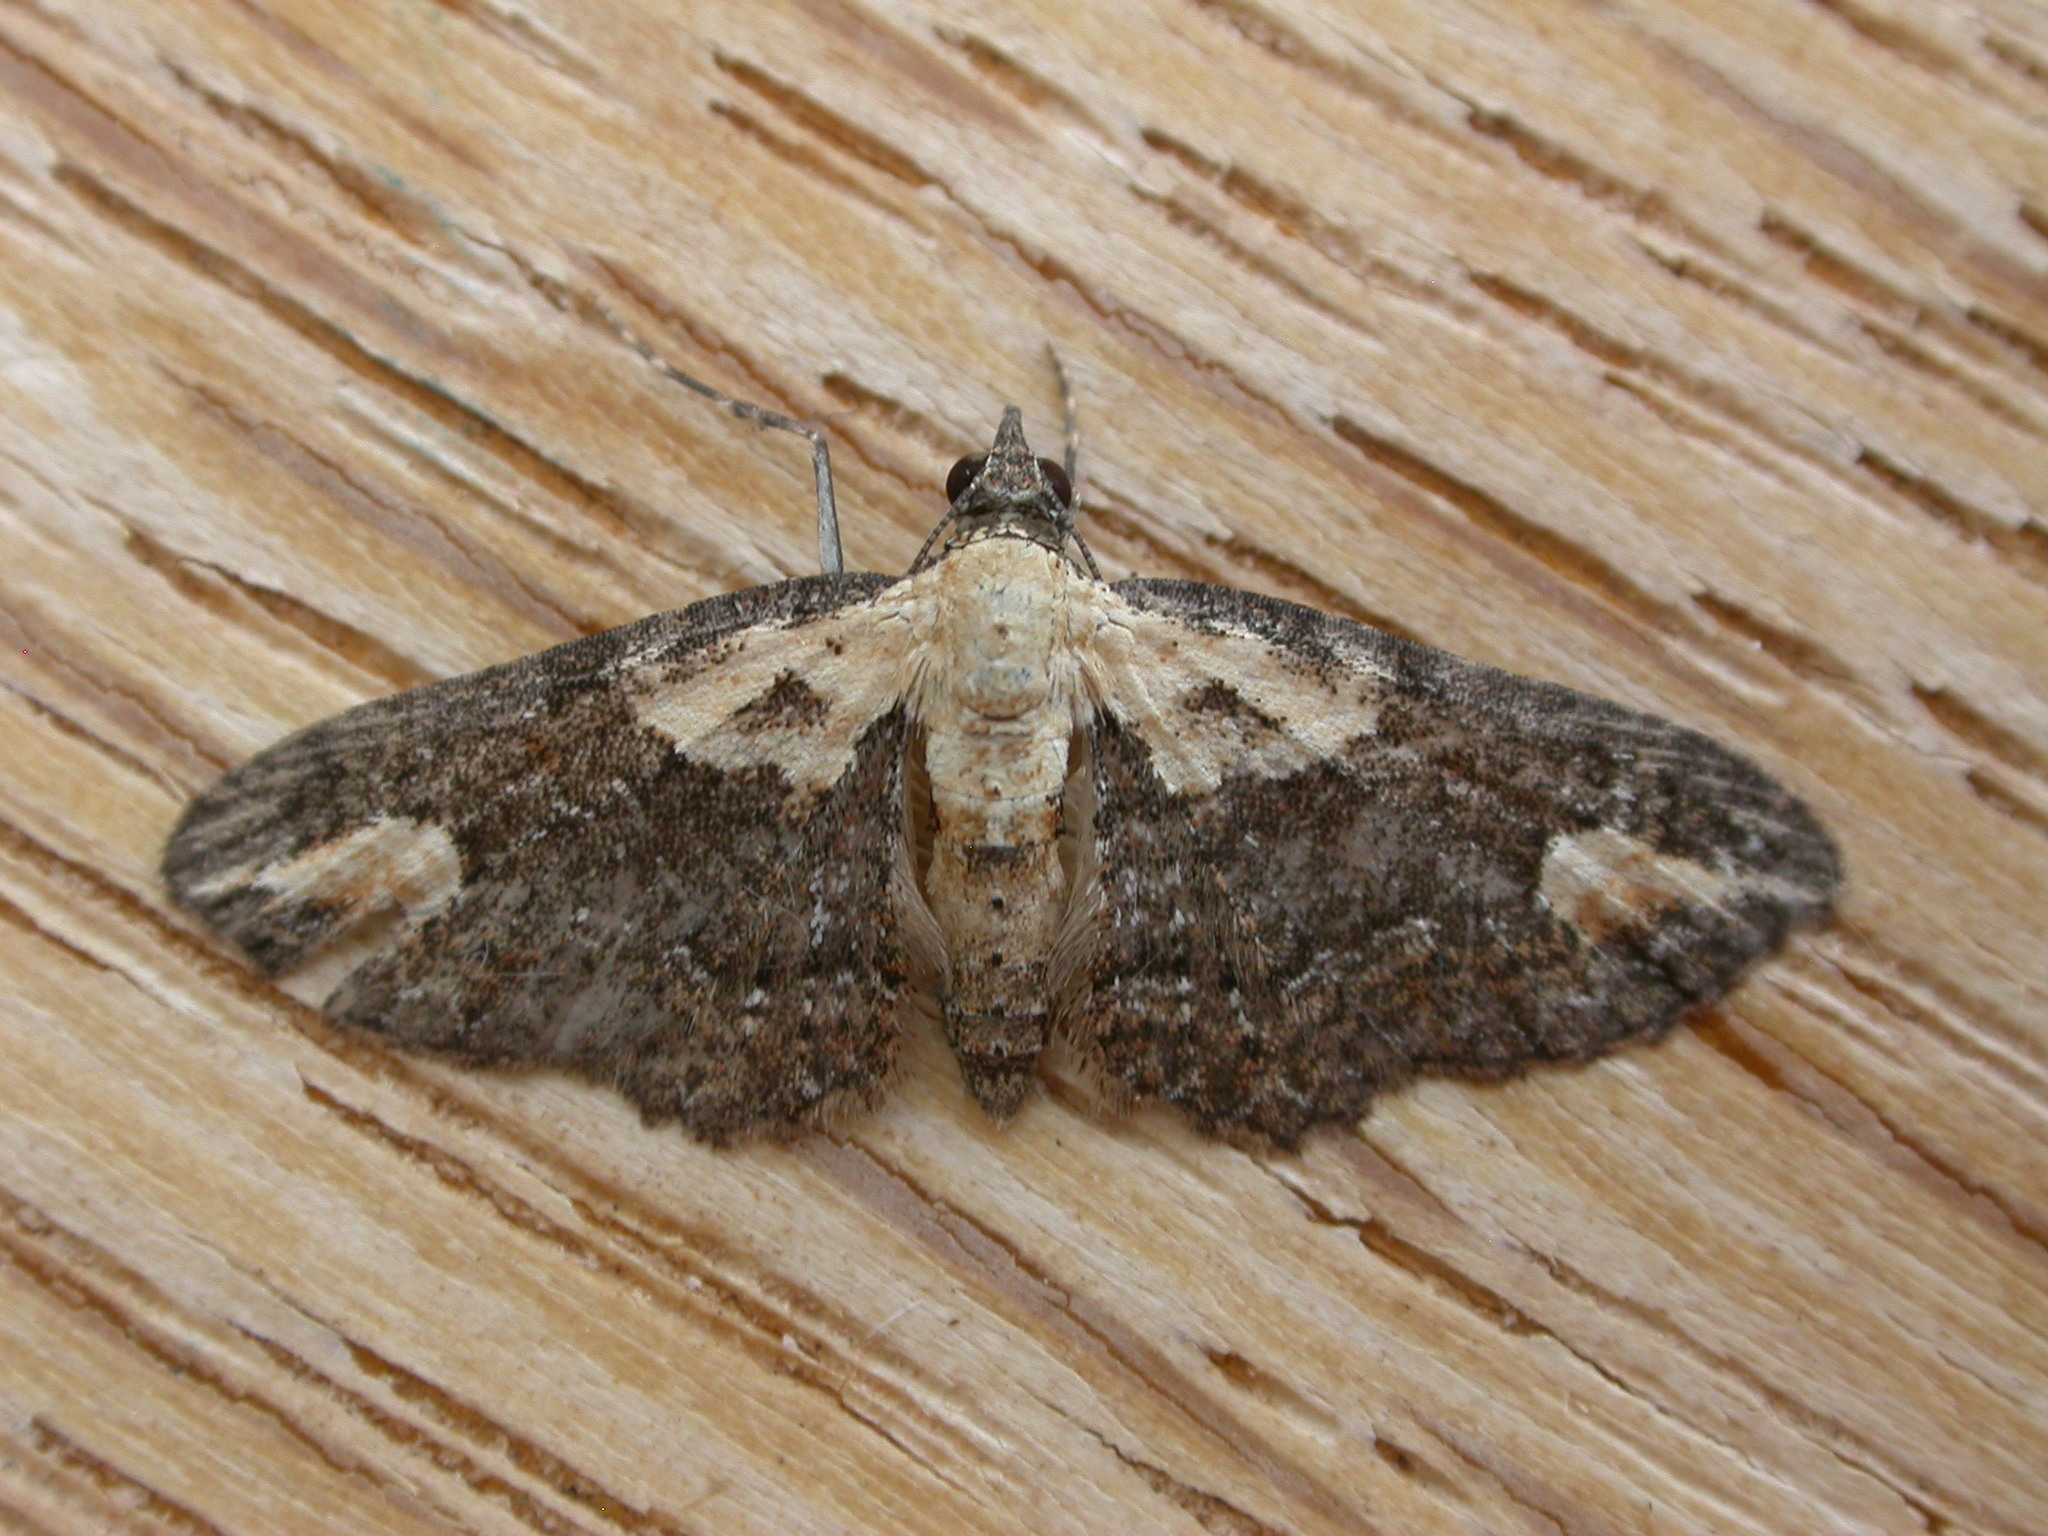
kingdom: Animalia
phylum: Arthropoda
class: Insecta
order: Lepidoptera
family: Geometridae
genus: Chloroclystis
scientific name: Chloroclystis pallidiplaga
